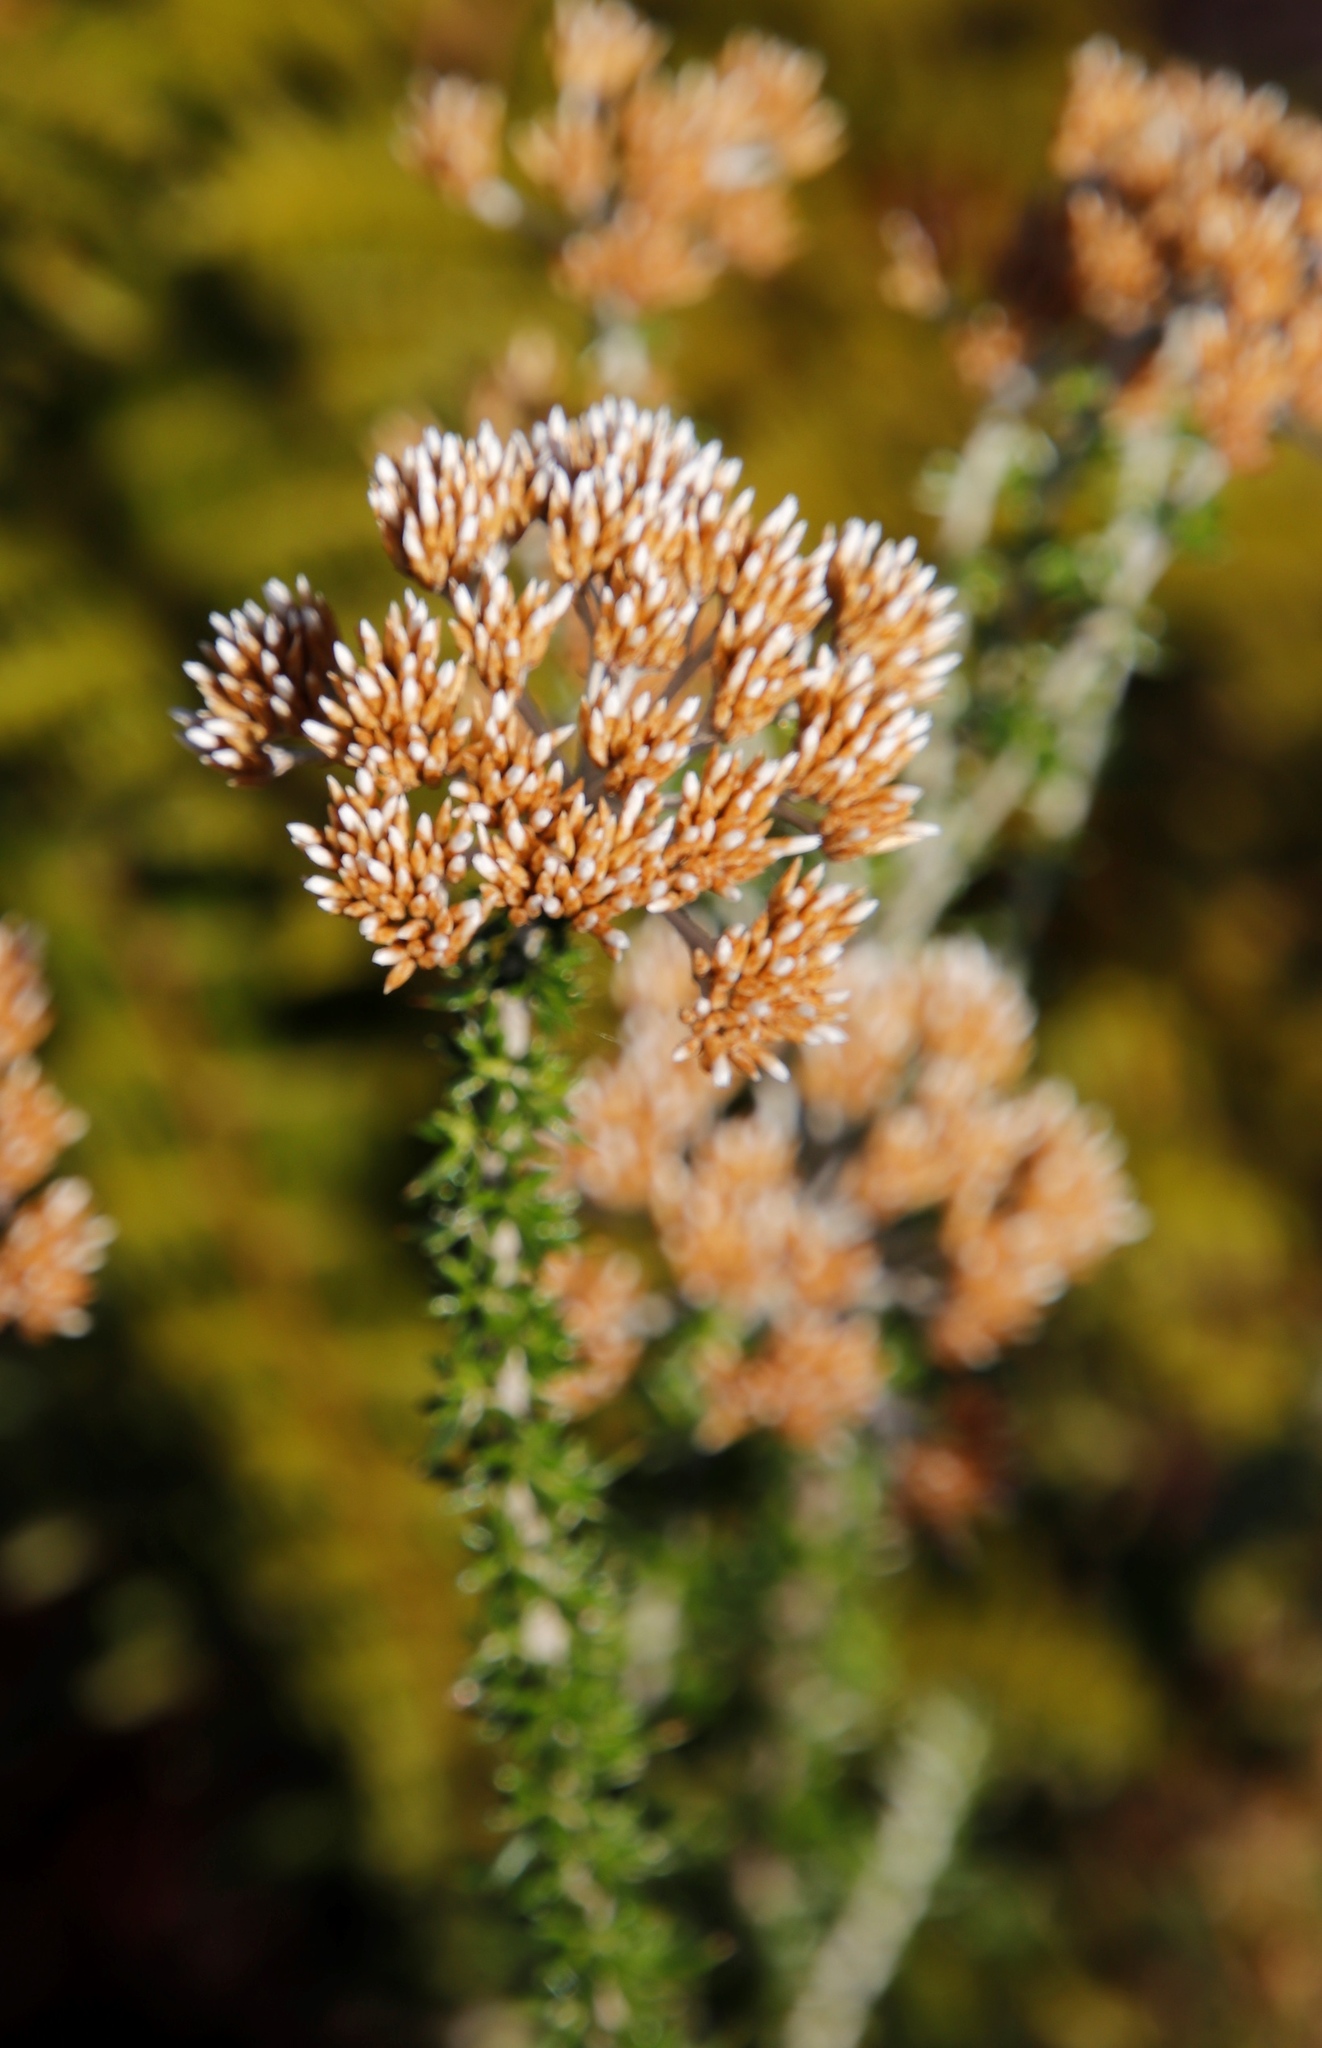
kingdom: Plantae
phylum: Tracheophyta
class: Magnoliopsida
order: Asterales
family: Asteraceae
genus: Metalasia
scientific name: Metalasia densa
